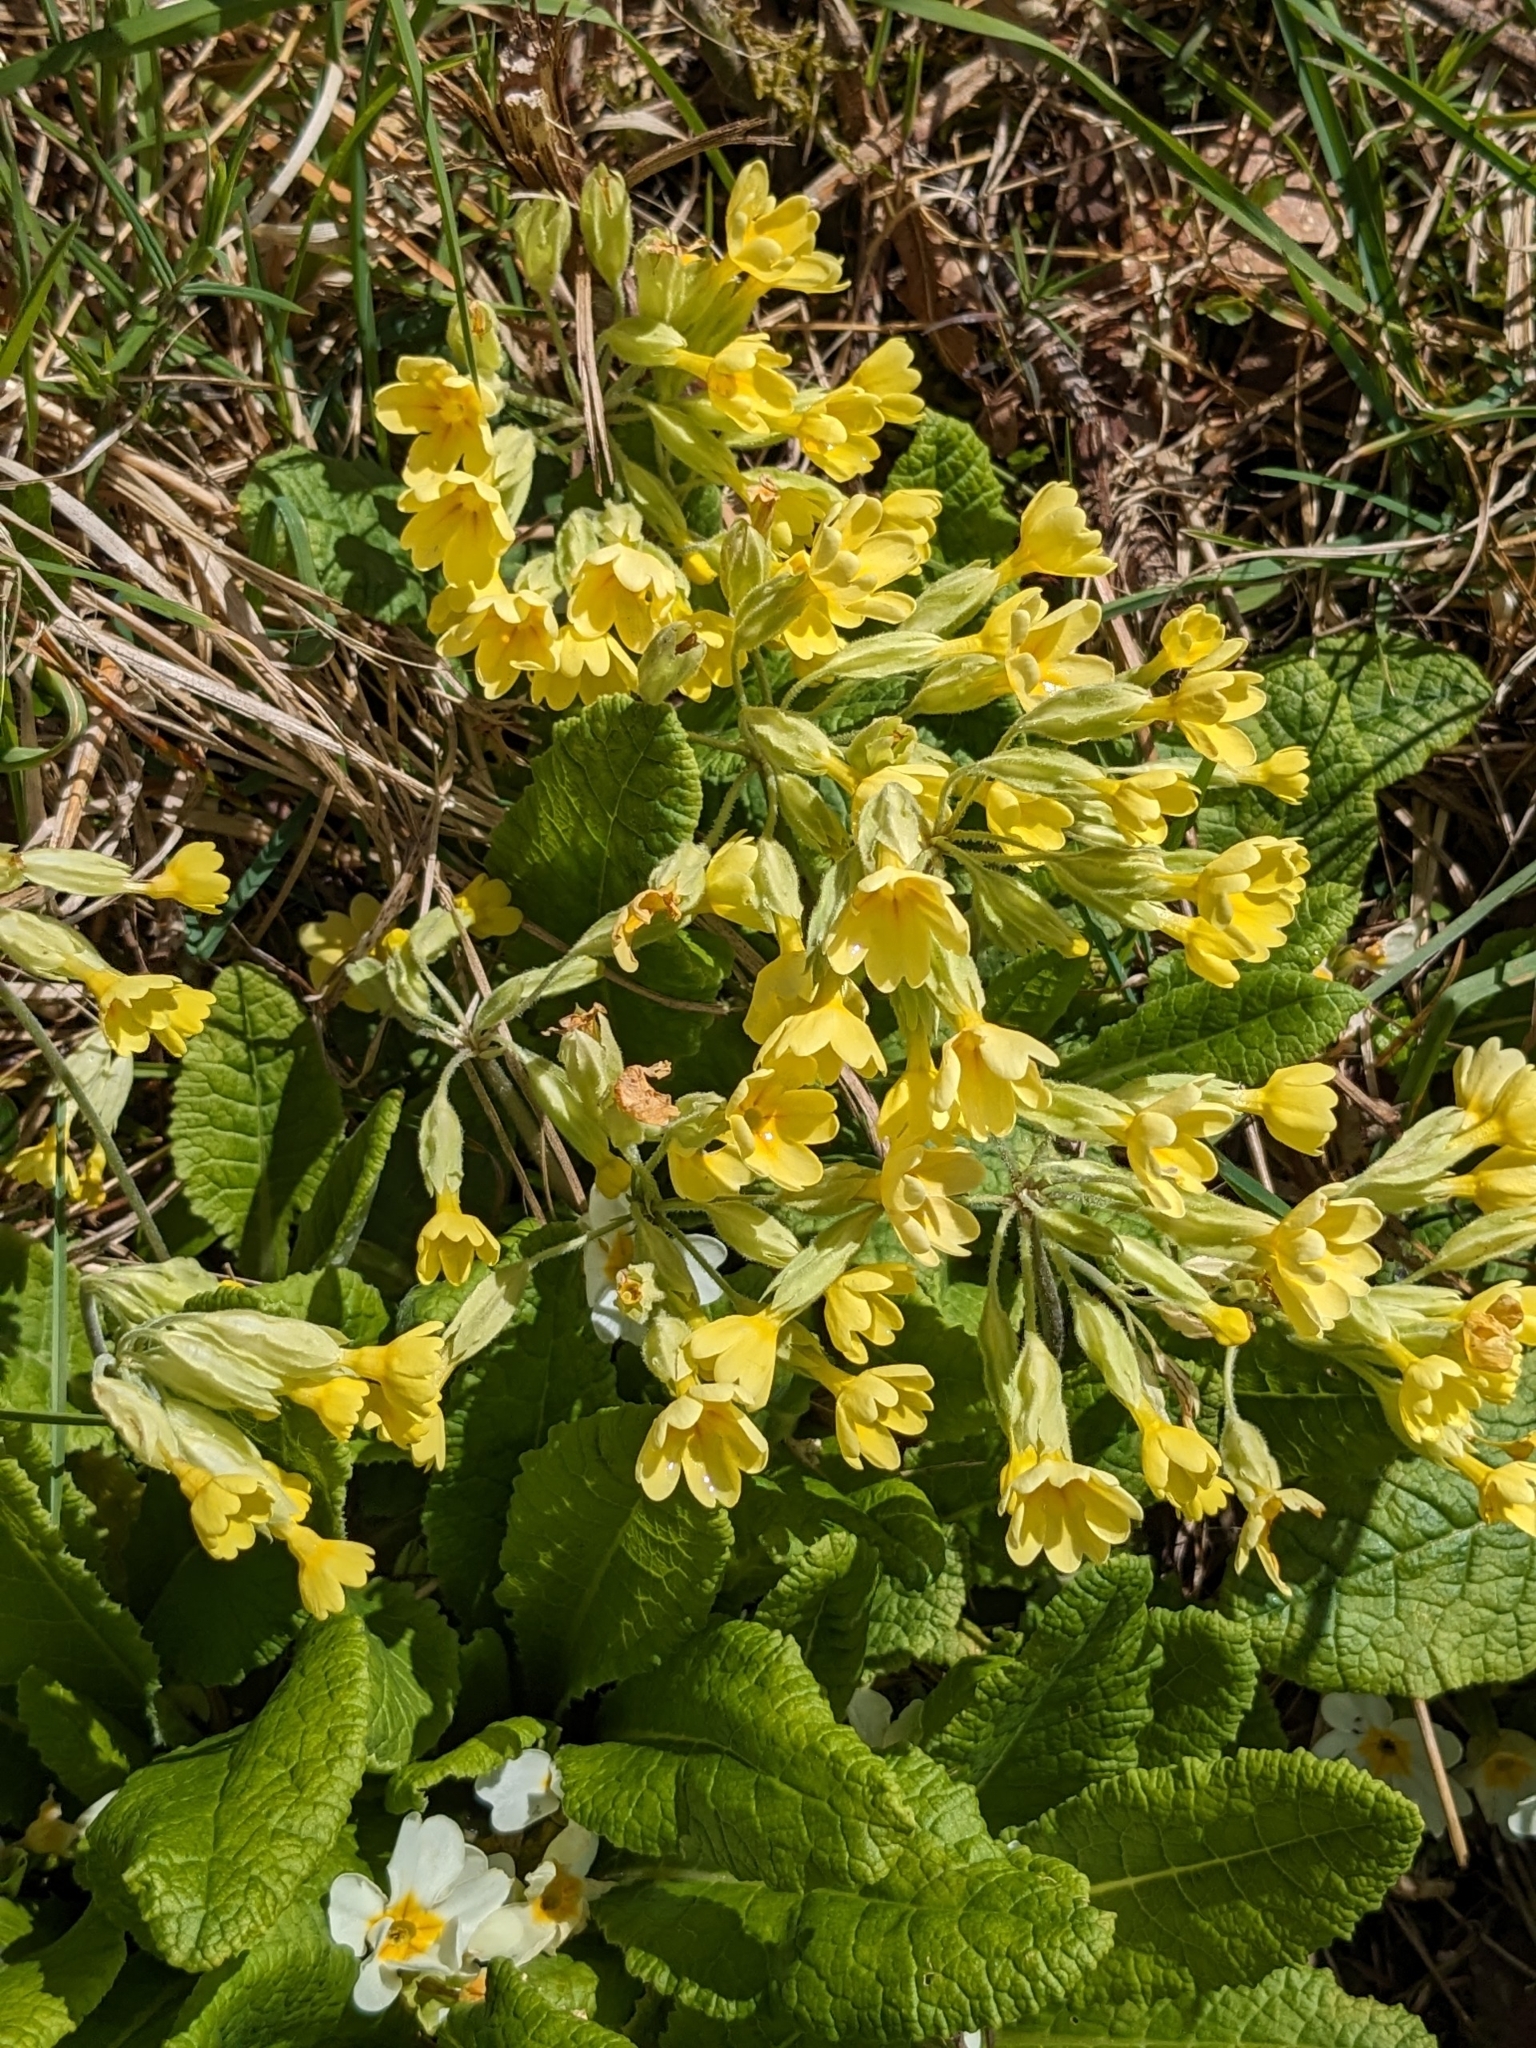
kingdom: Plantae
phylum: Tracheophyta
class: Magnoliopsida
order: Ericales
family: Primulaceae
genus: Primula
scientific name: Primula elatior
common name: Oxlip
